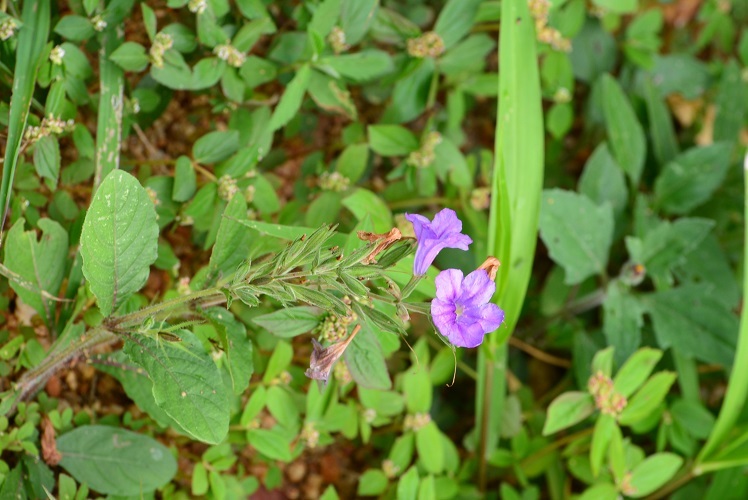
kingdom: Plantae
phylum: Tracheophyta
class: Magnoliopsida
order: Lamiales
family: Acanthaceae
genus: Ruellia
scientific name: Ruellia hookeriana
